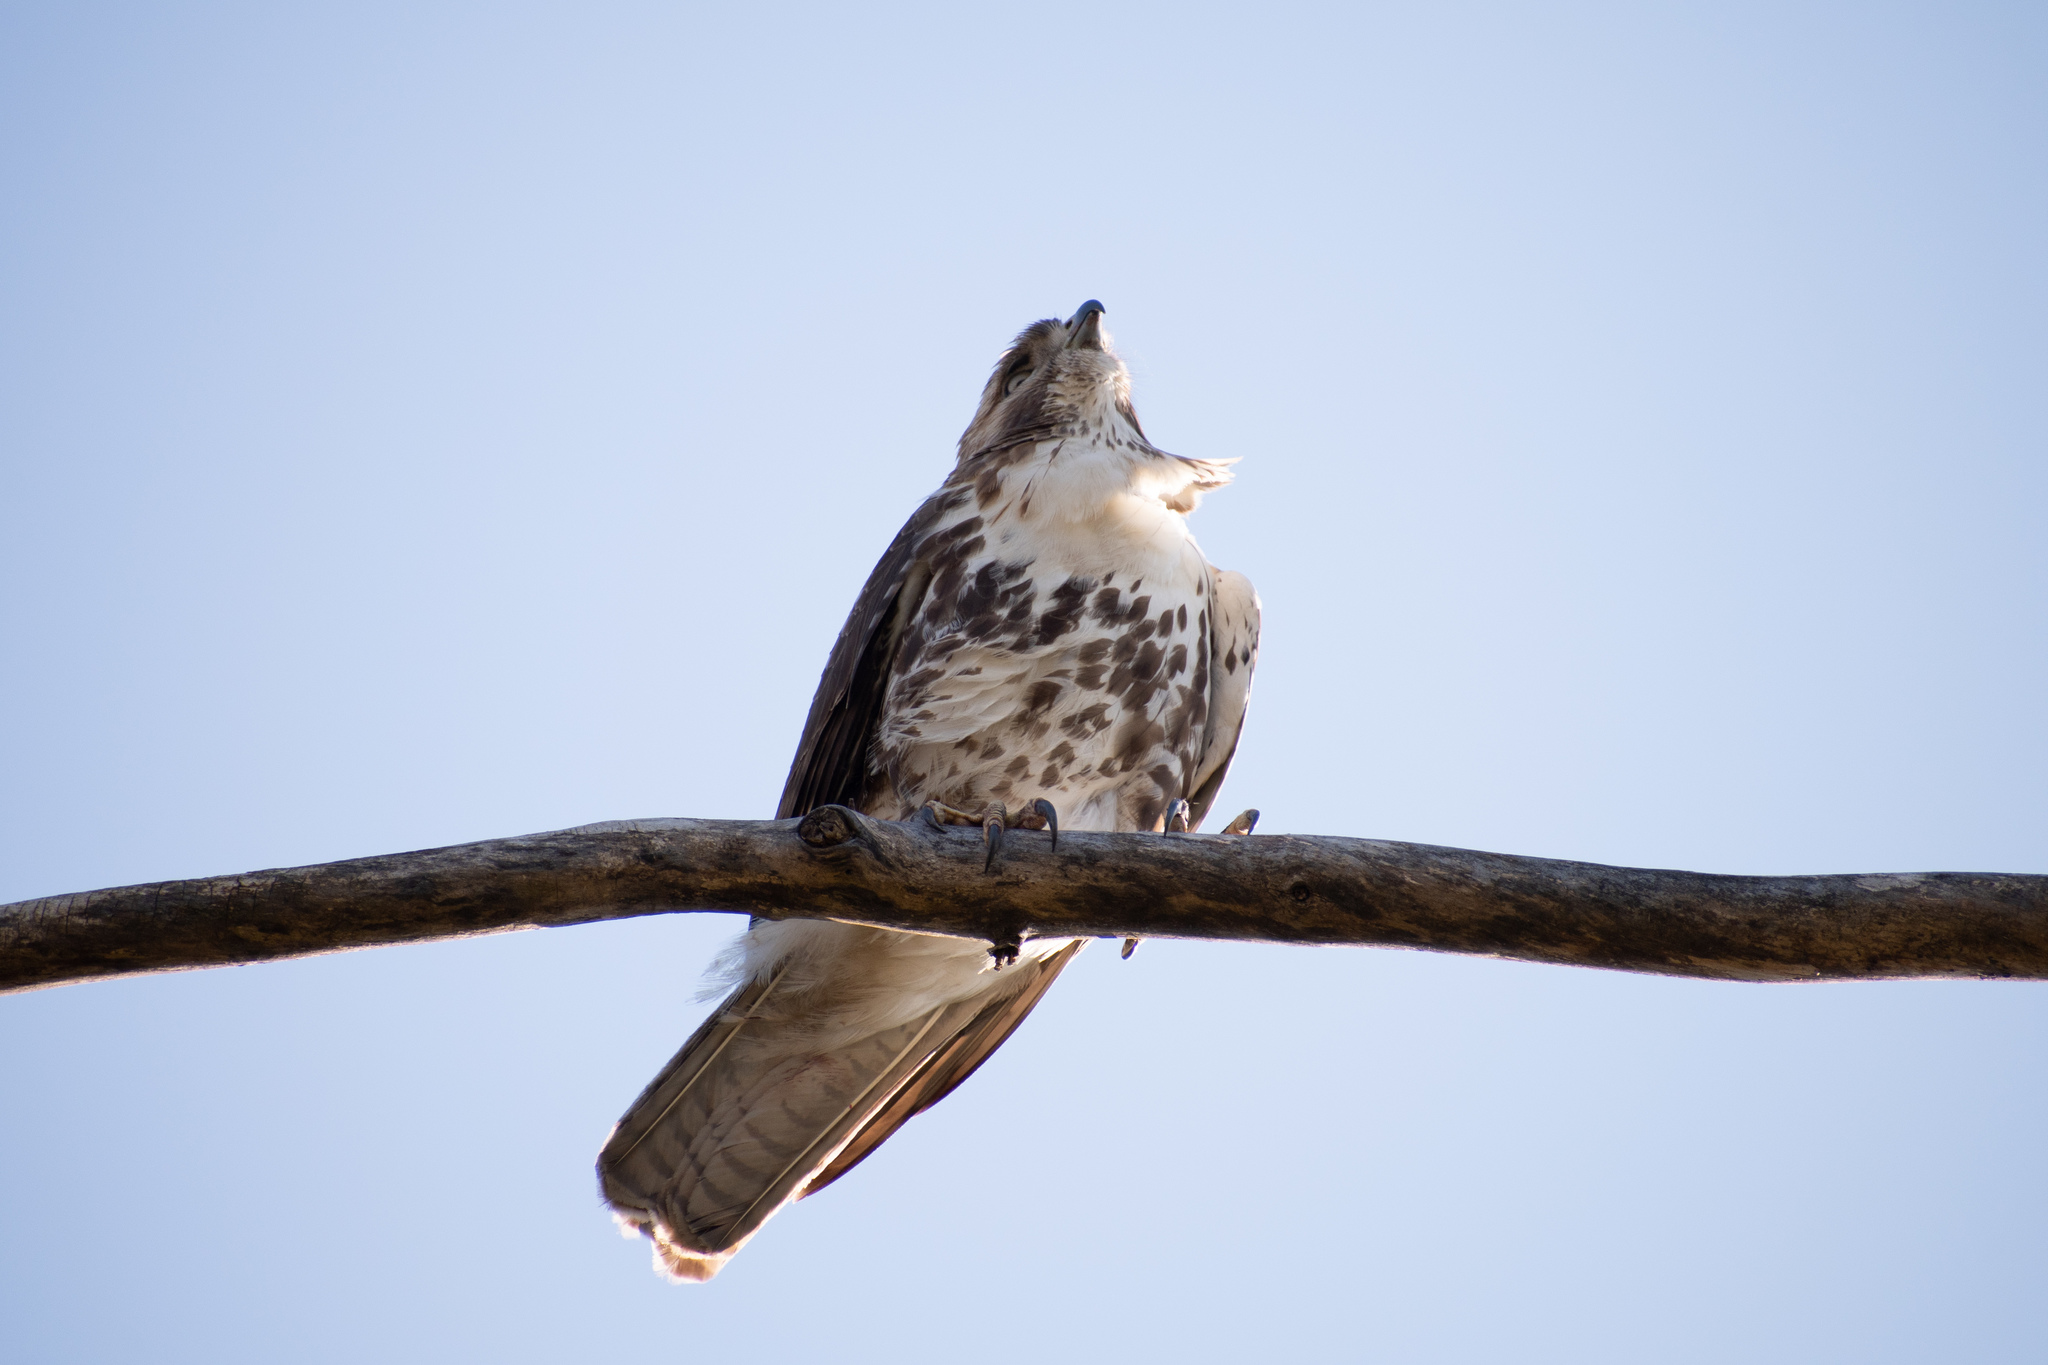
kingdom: Animalia
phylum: Chordata
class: Aves
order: Accipitriformes
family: Accipitridae
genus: Buteo
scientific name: Buteo jamaicensis
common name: Red-tailed hawk
